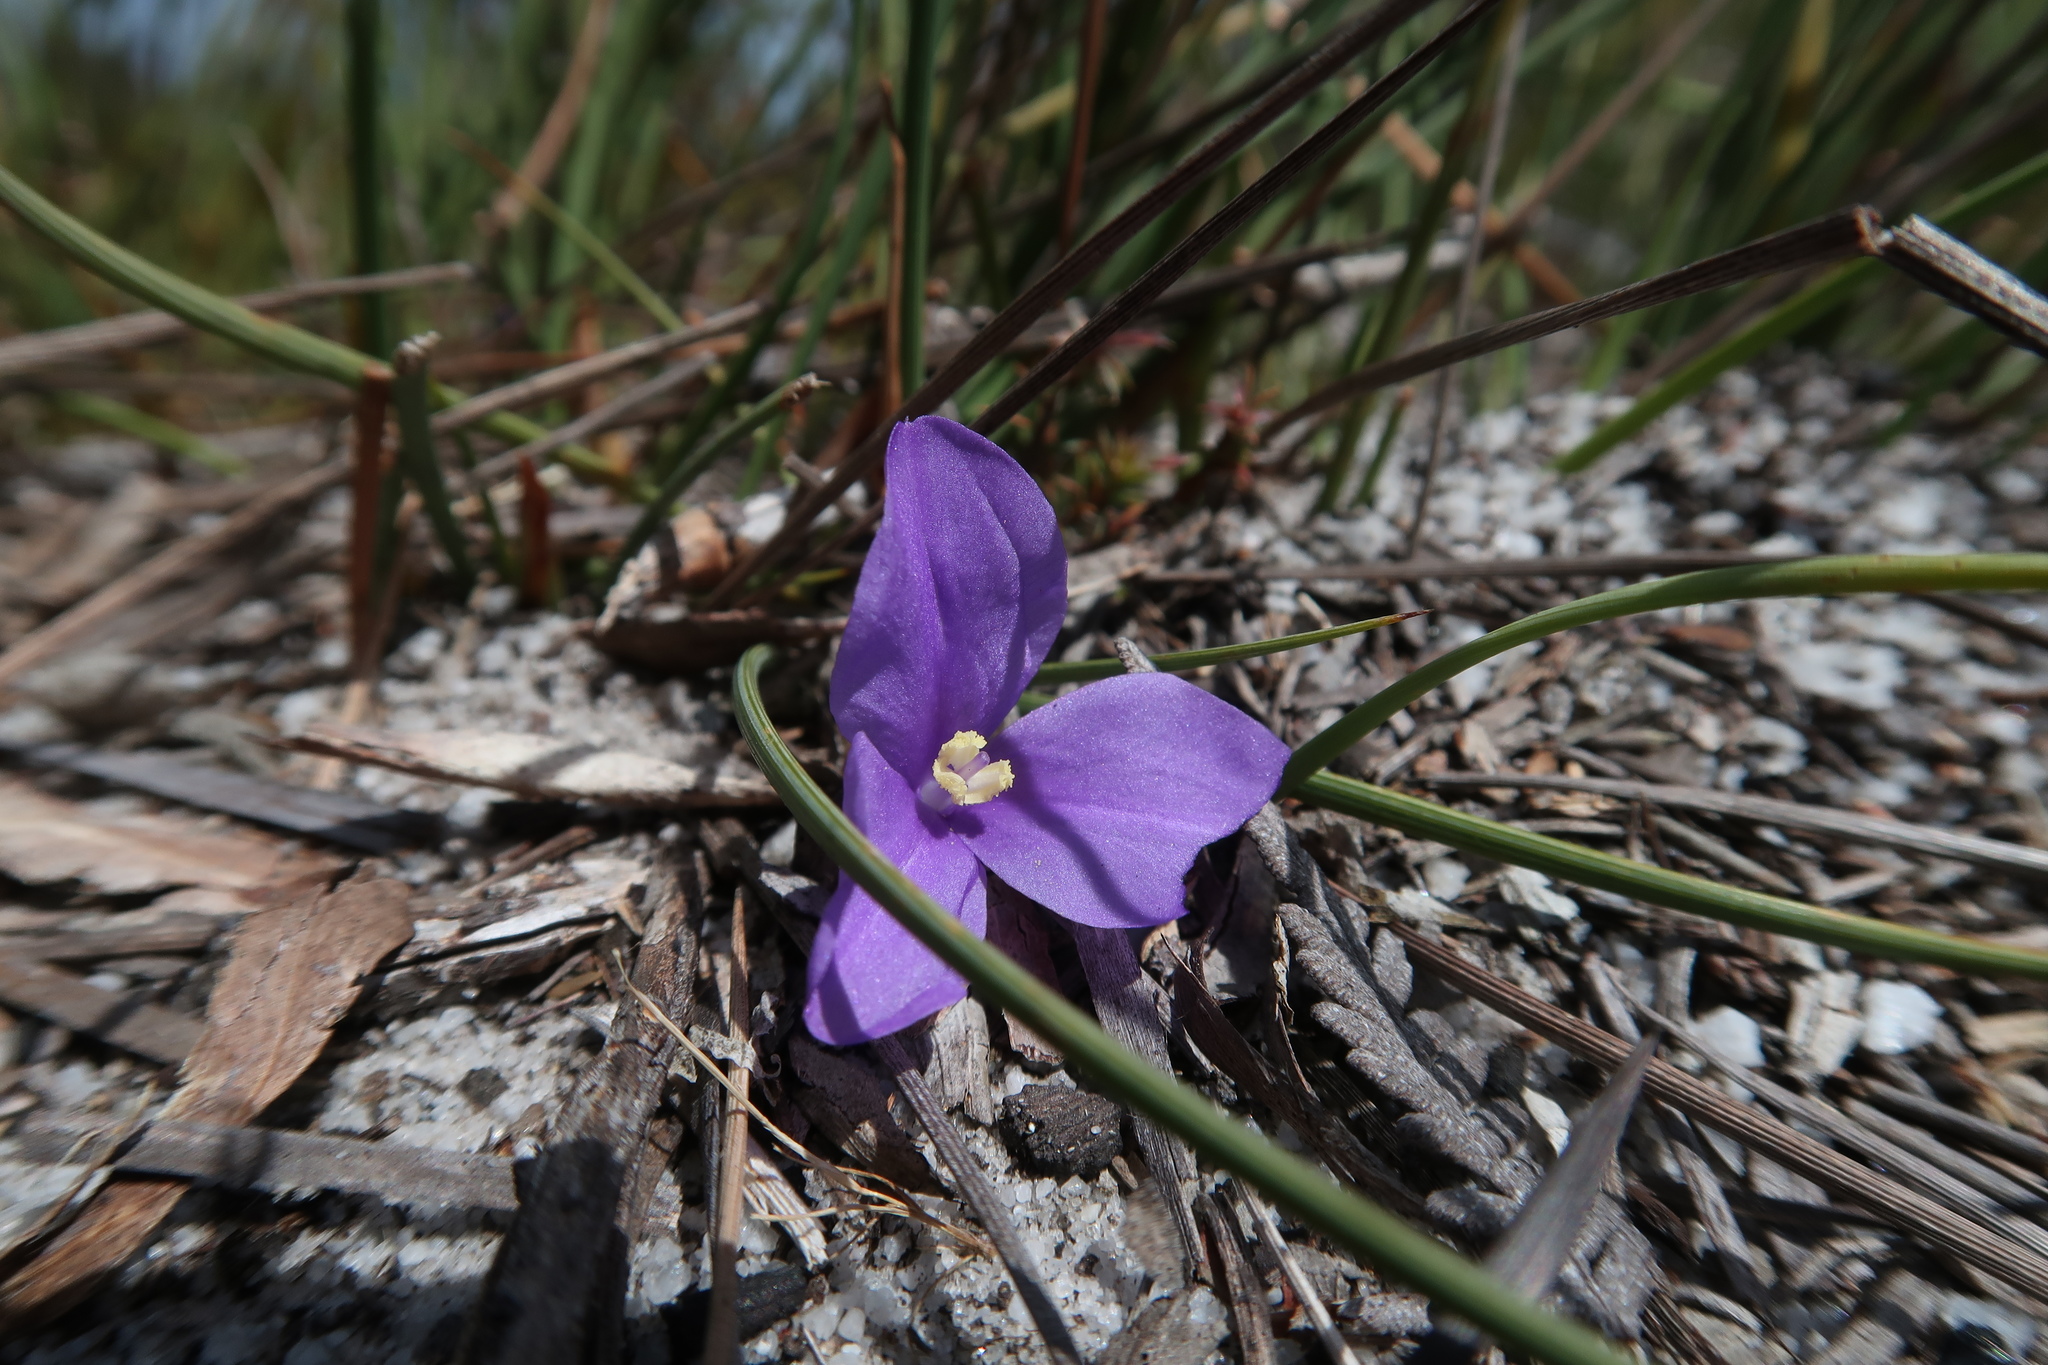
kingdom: Plantae
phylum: Tracheophyta
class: Liliopsida
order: Asparagales
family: Iridaceae
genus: Patersonia
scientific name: Patersonia fragilis
